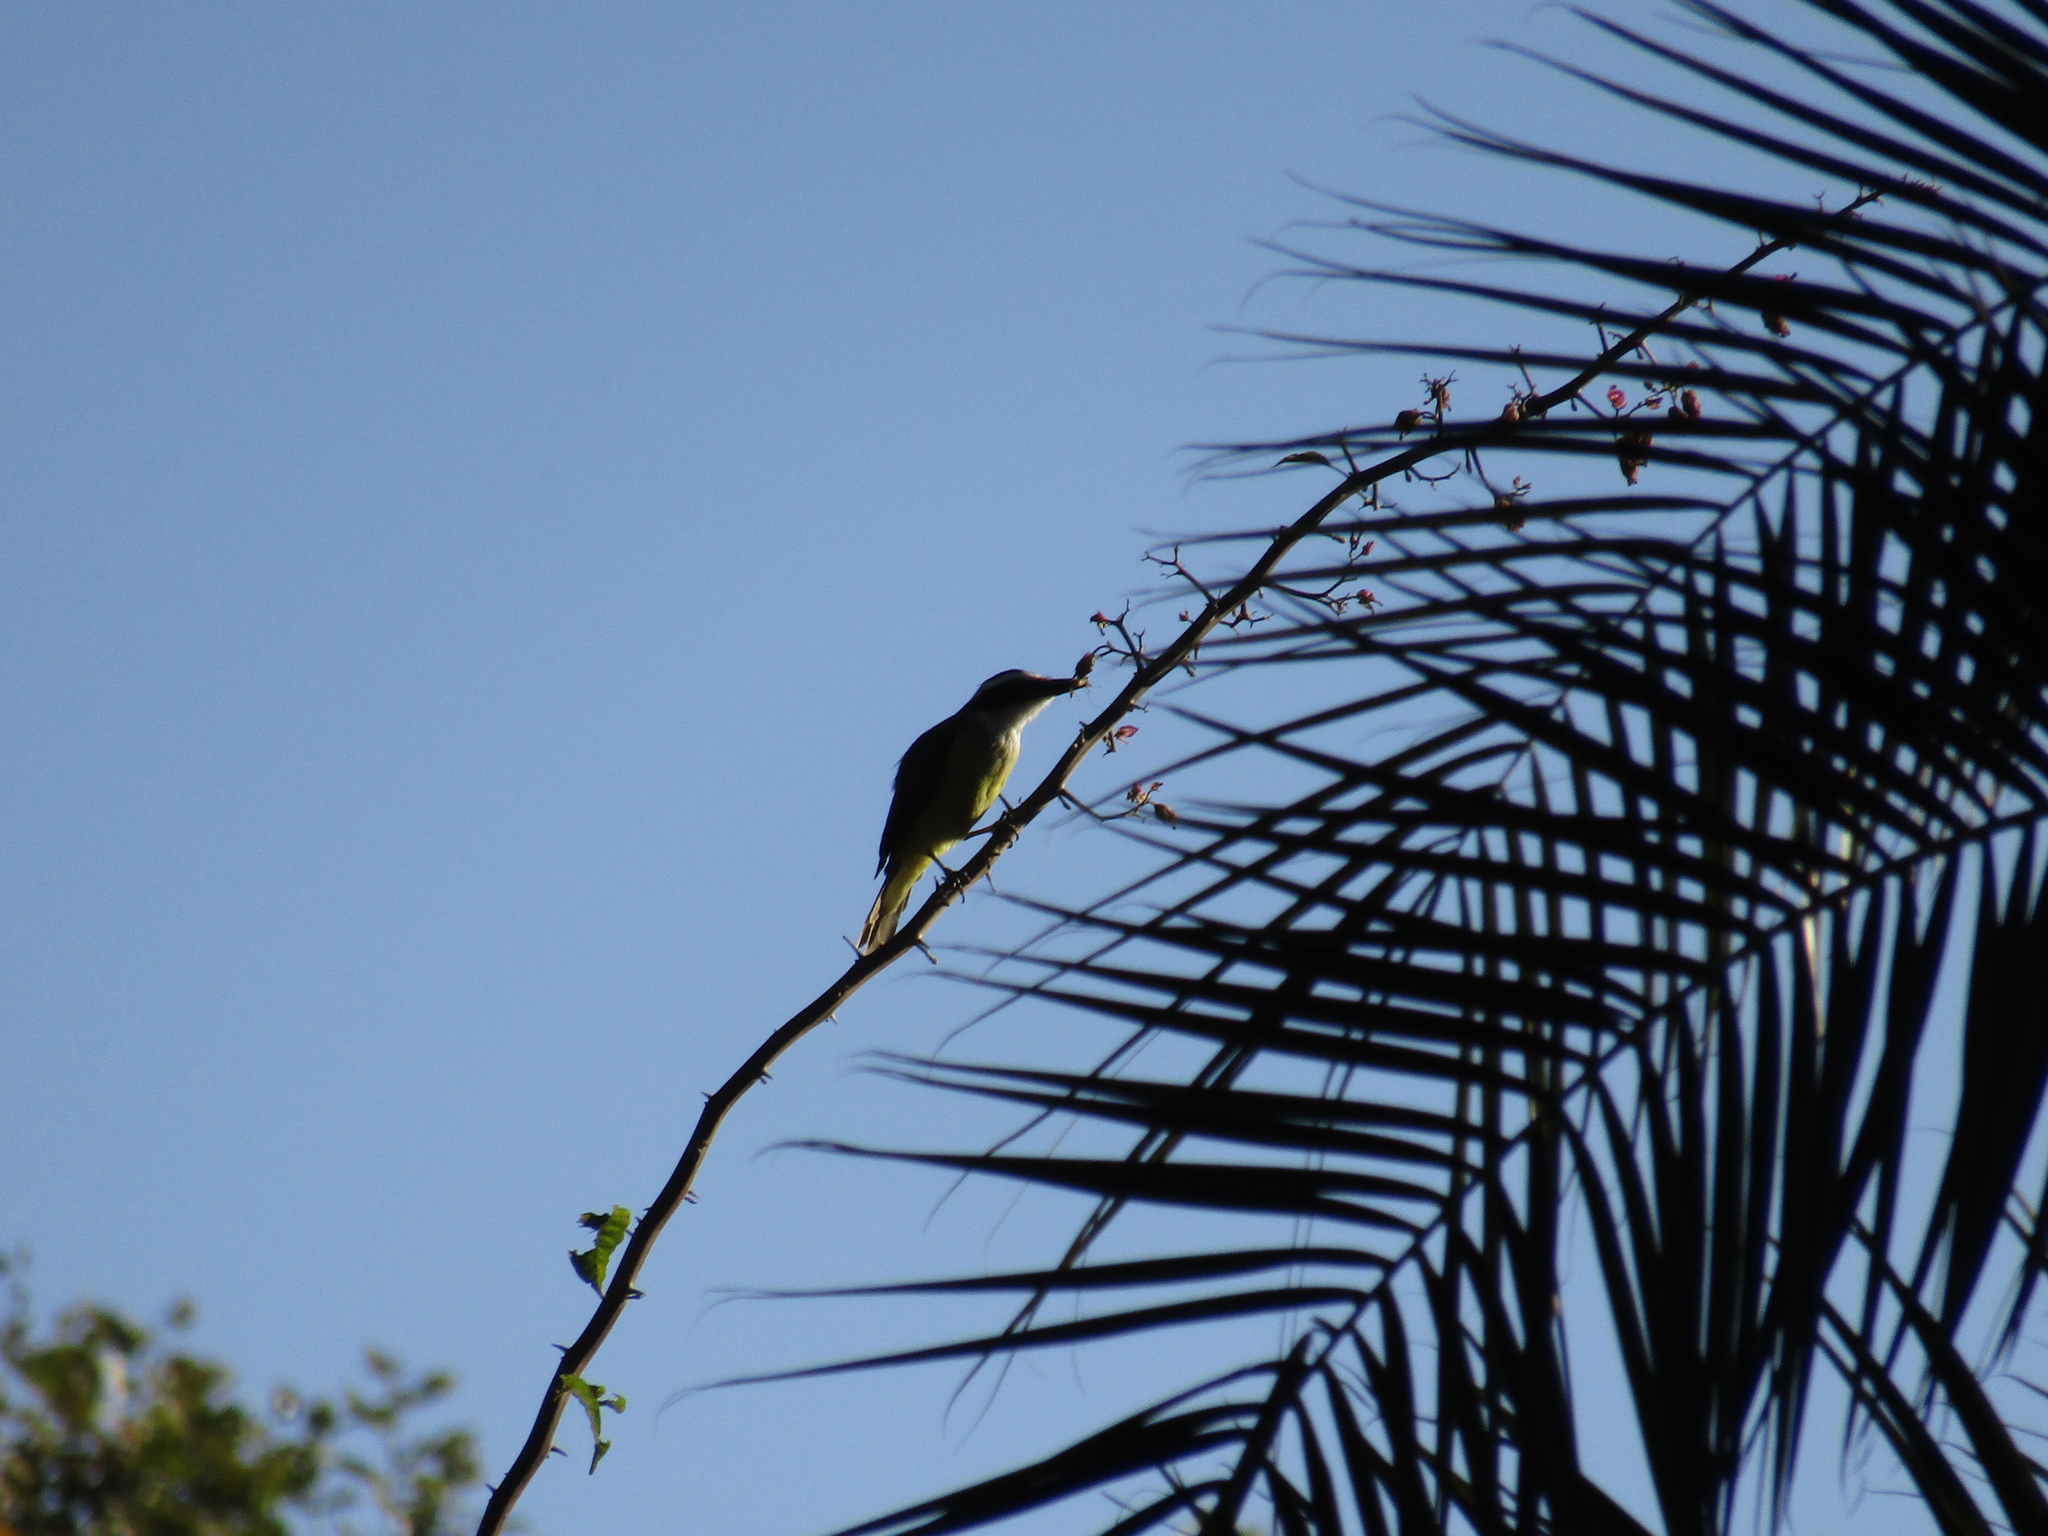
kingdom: Animalia
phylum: Chordata
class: Aves
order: Passeriformes
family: Tyrannidae
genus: Pitangus
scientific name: Pitangus sulphuratus
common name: Great kiskadee
